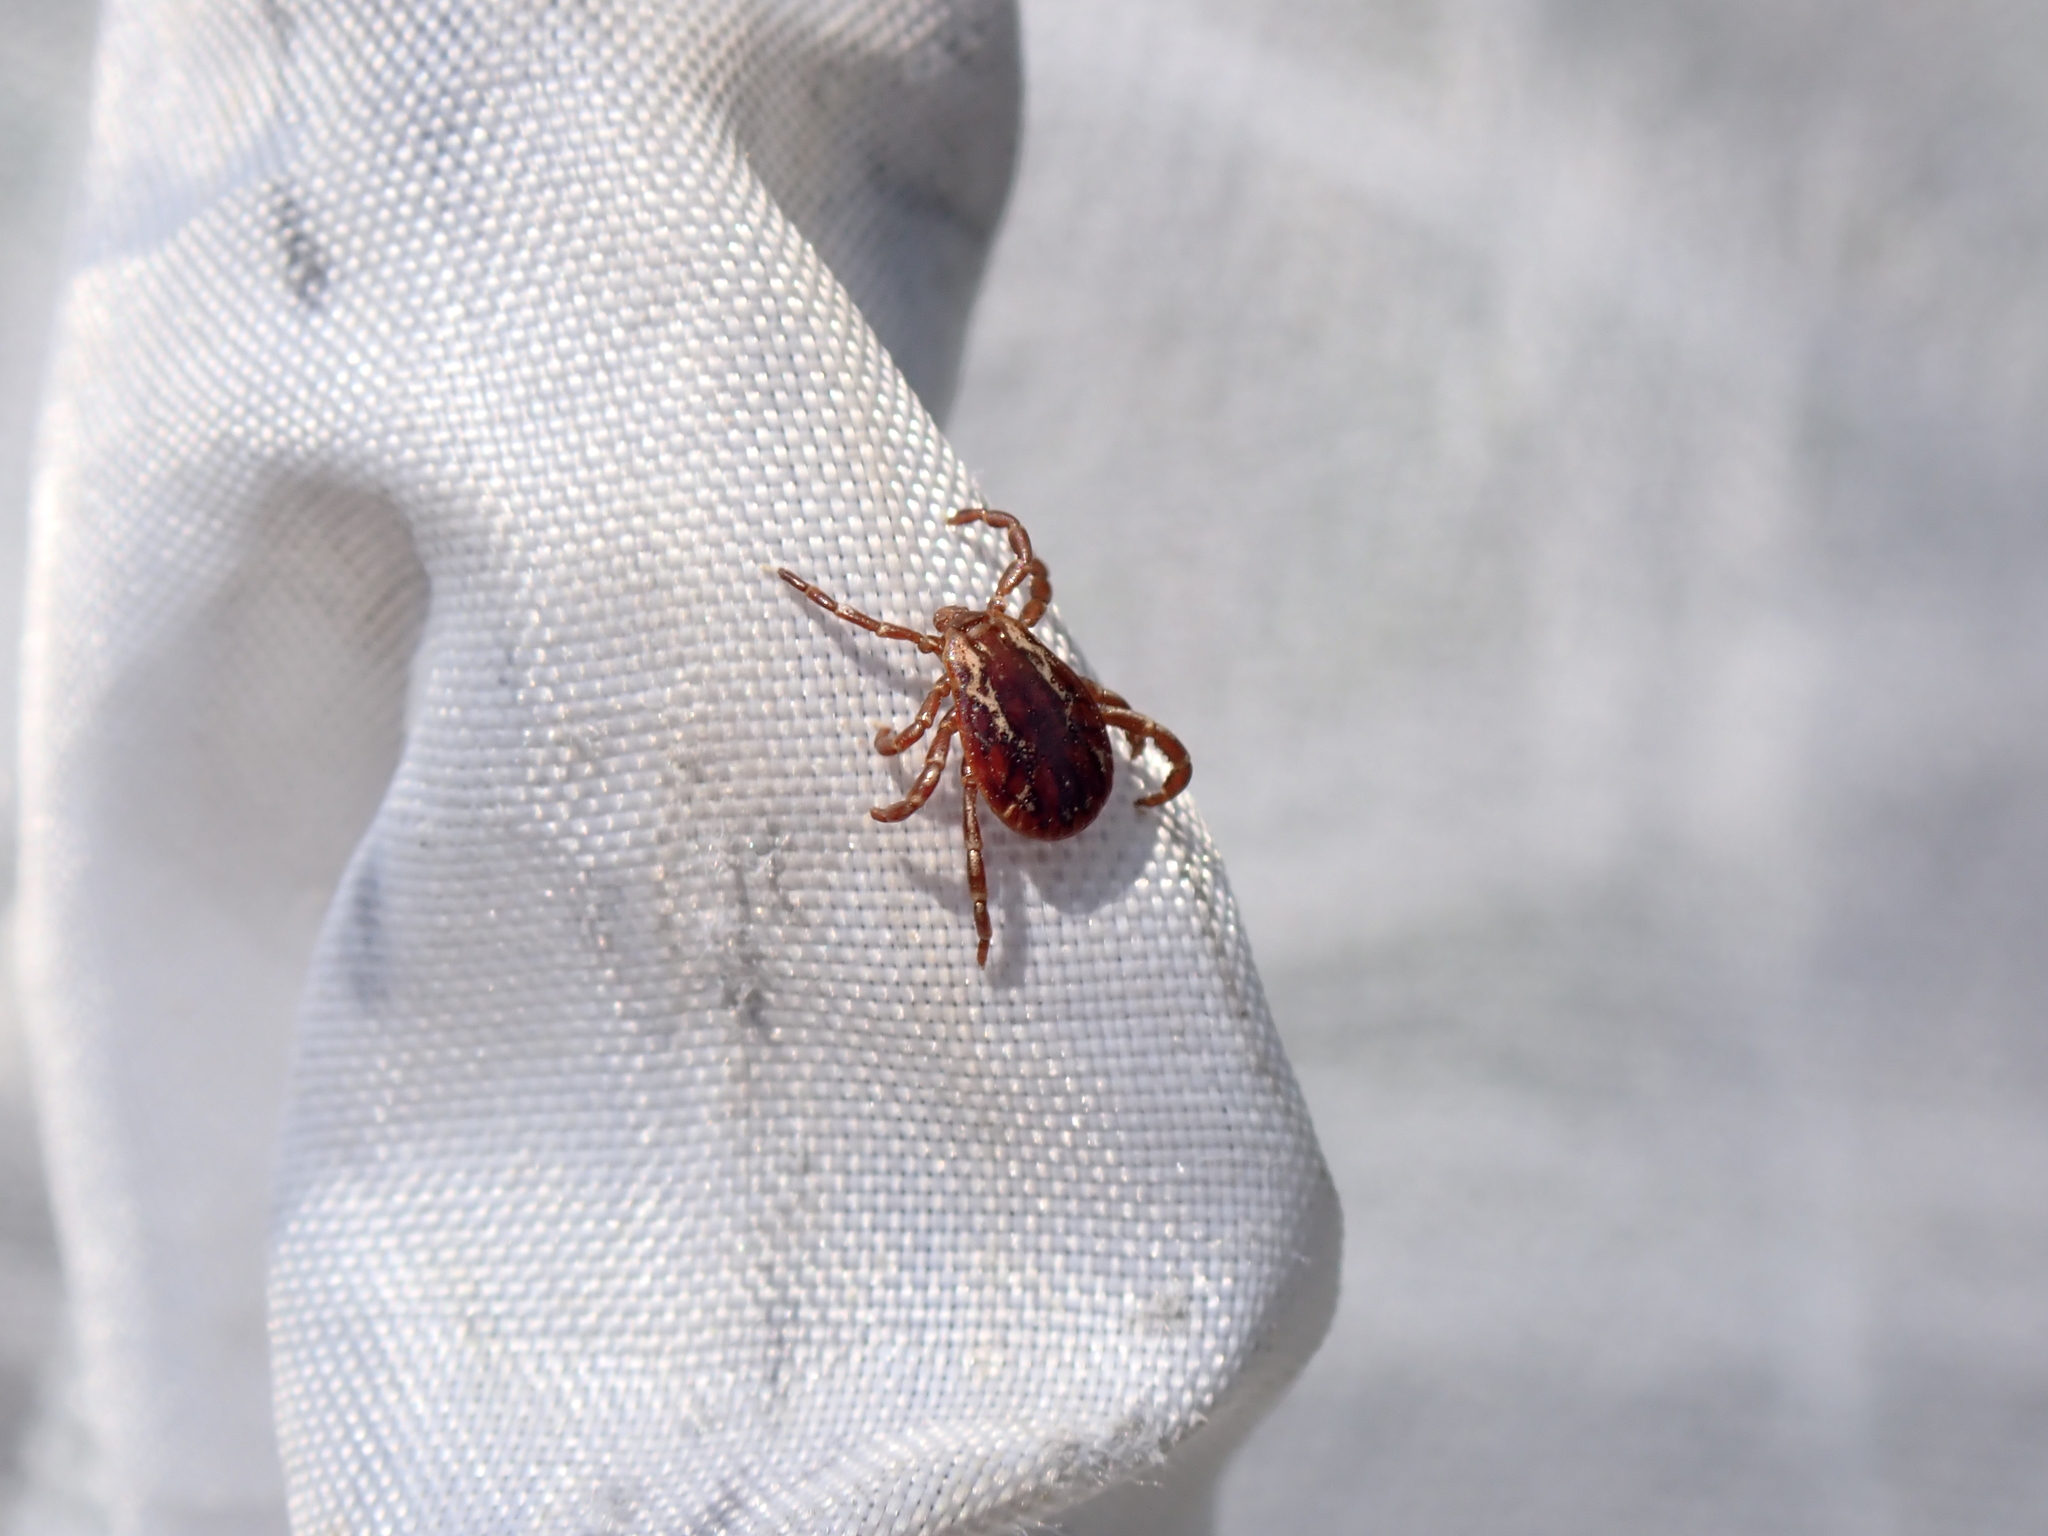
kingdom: Animalia
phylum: Arthropoda
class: Arachnida
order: Ixodida
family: Ixodidae
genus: Dermacentor
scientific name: Dermacentor variabilis
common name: American dog tick
